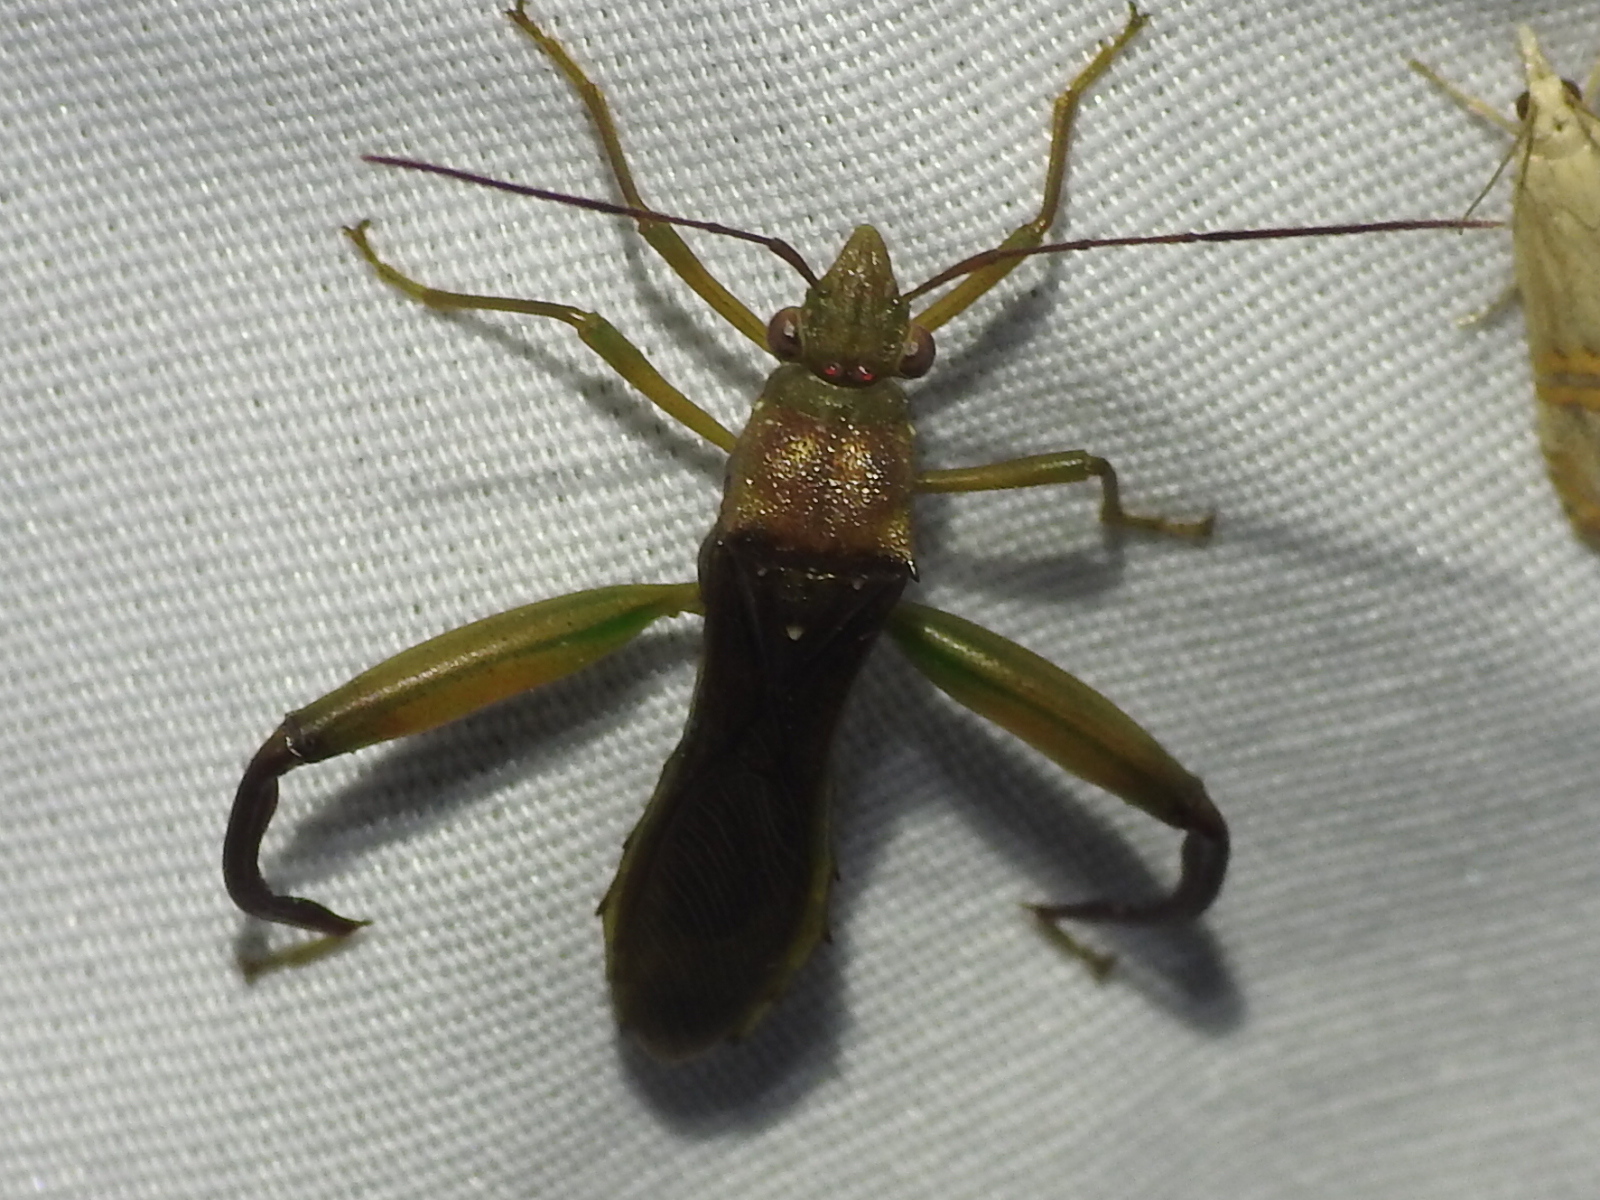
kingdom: Animalia
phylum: Arthropoda
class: Insecta
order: Hemiptera
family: Alydidae
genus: Hyalymenus
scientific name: Hyalymenus tarsatus
